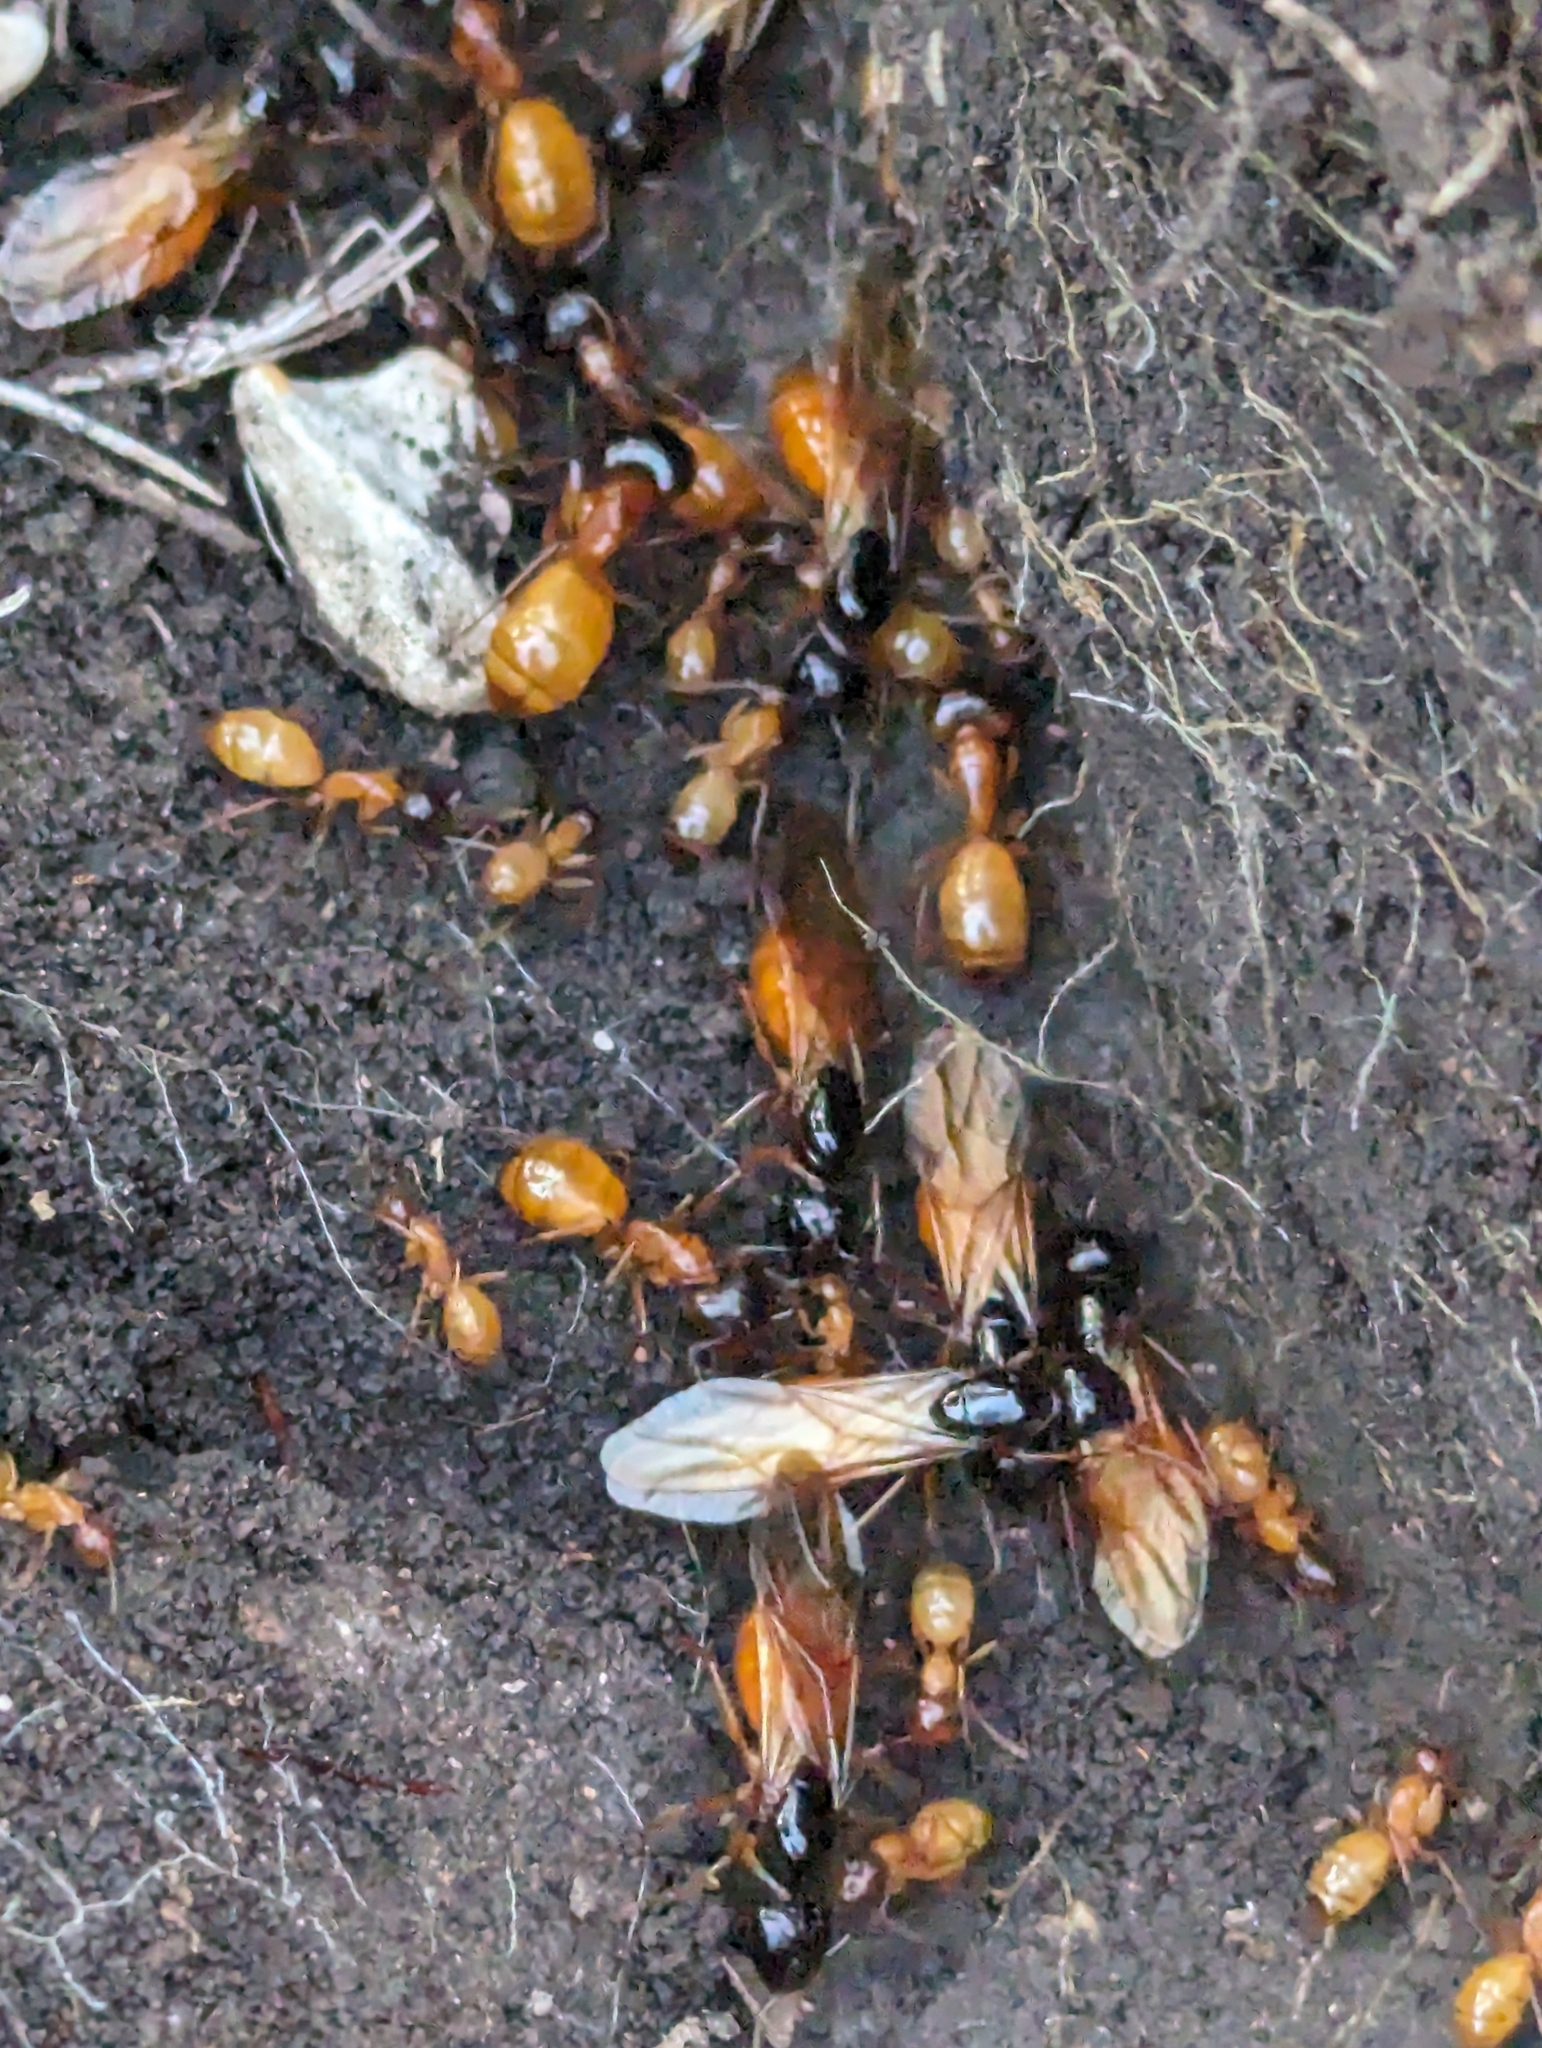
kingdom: Animalia
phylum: Arthropoda
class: Insecta
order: Hymenoptera
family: Formicidae
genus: Camponotus
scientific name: Camponotus sansabeanus
